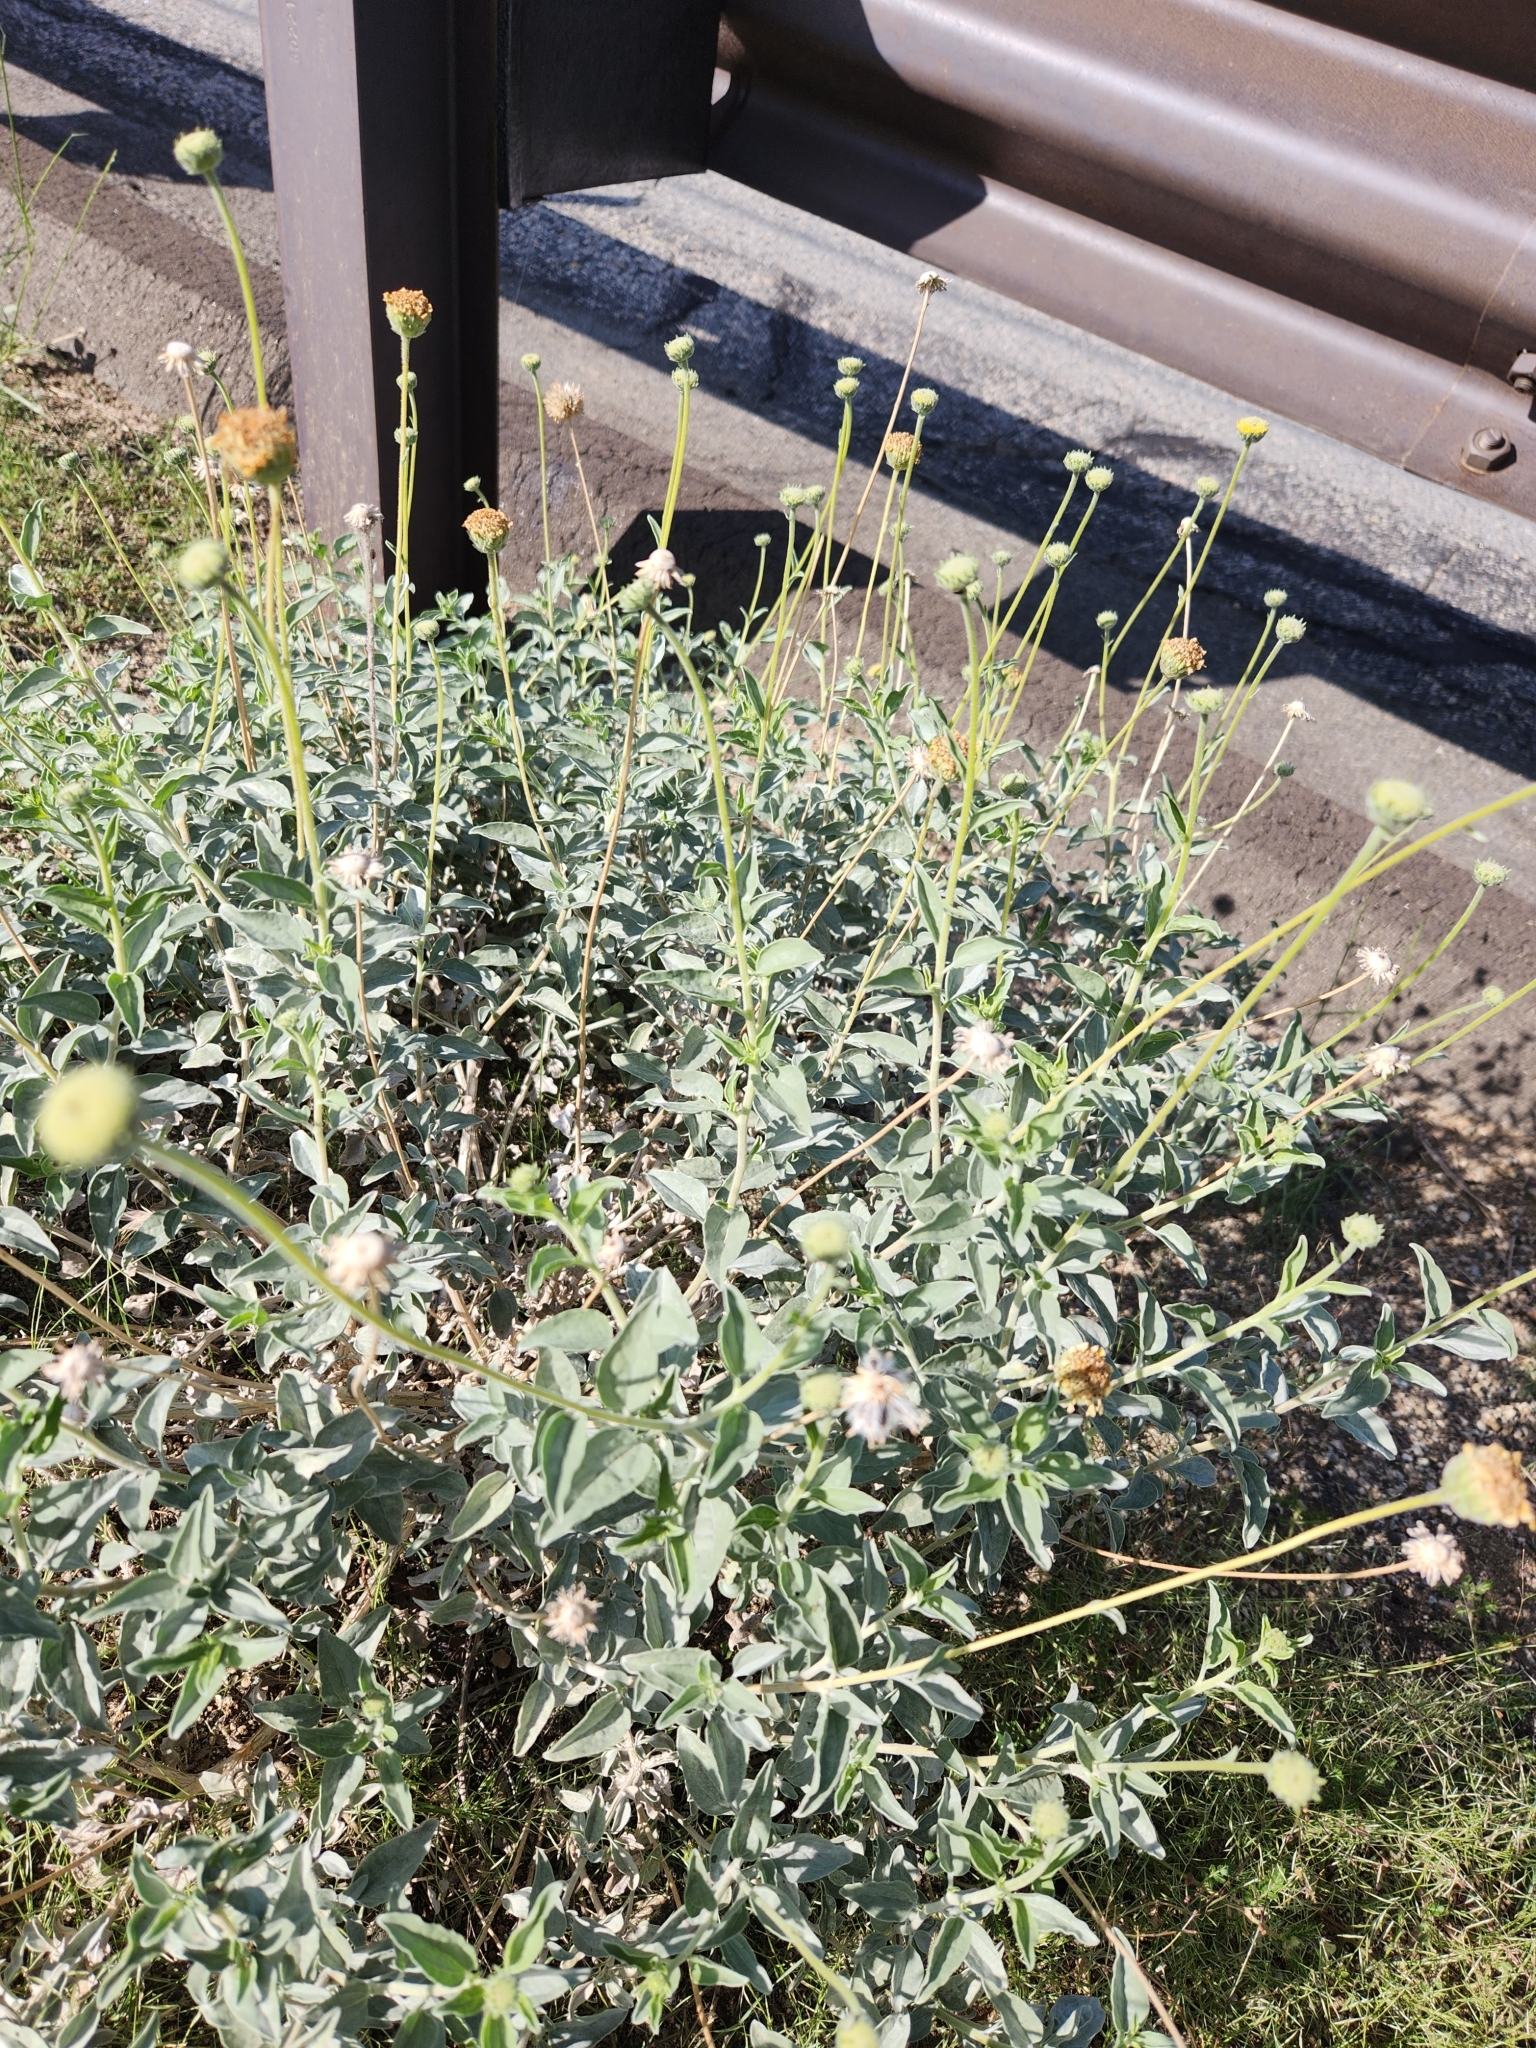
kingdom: Plantae
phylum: Tracheophyta
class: Magnoliopsida
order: Asterales
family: Asteraceae
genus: Encelia
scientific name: Encelia actoni
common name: Acton encelia
